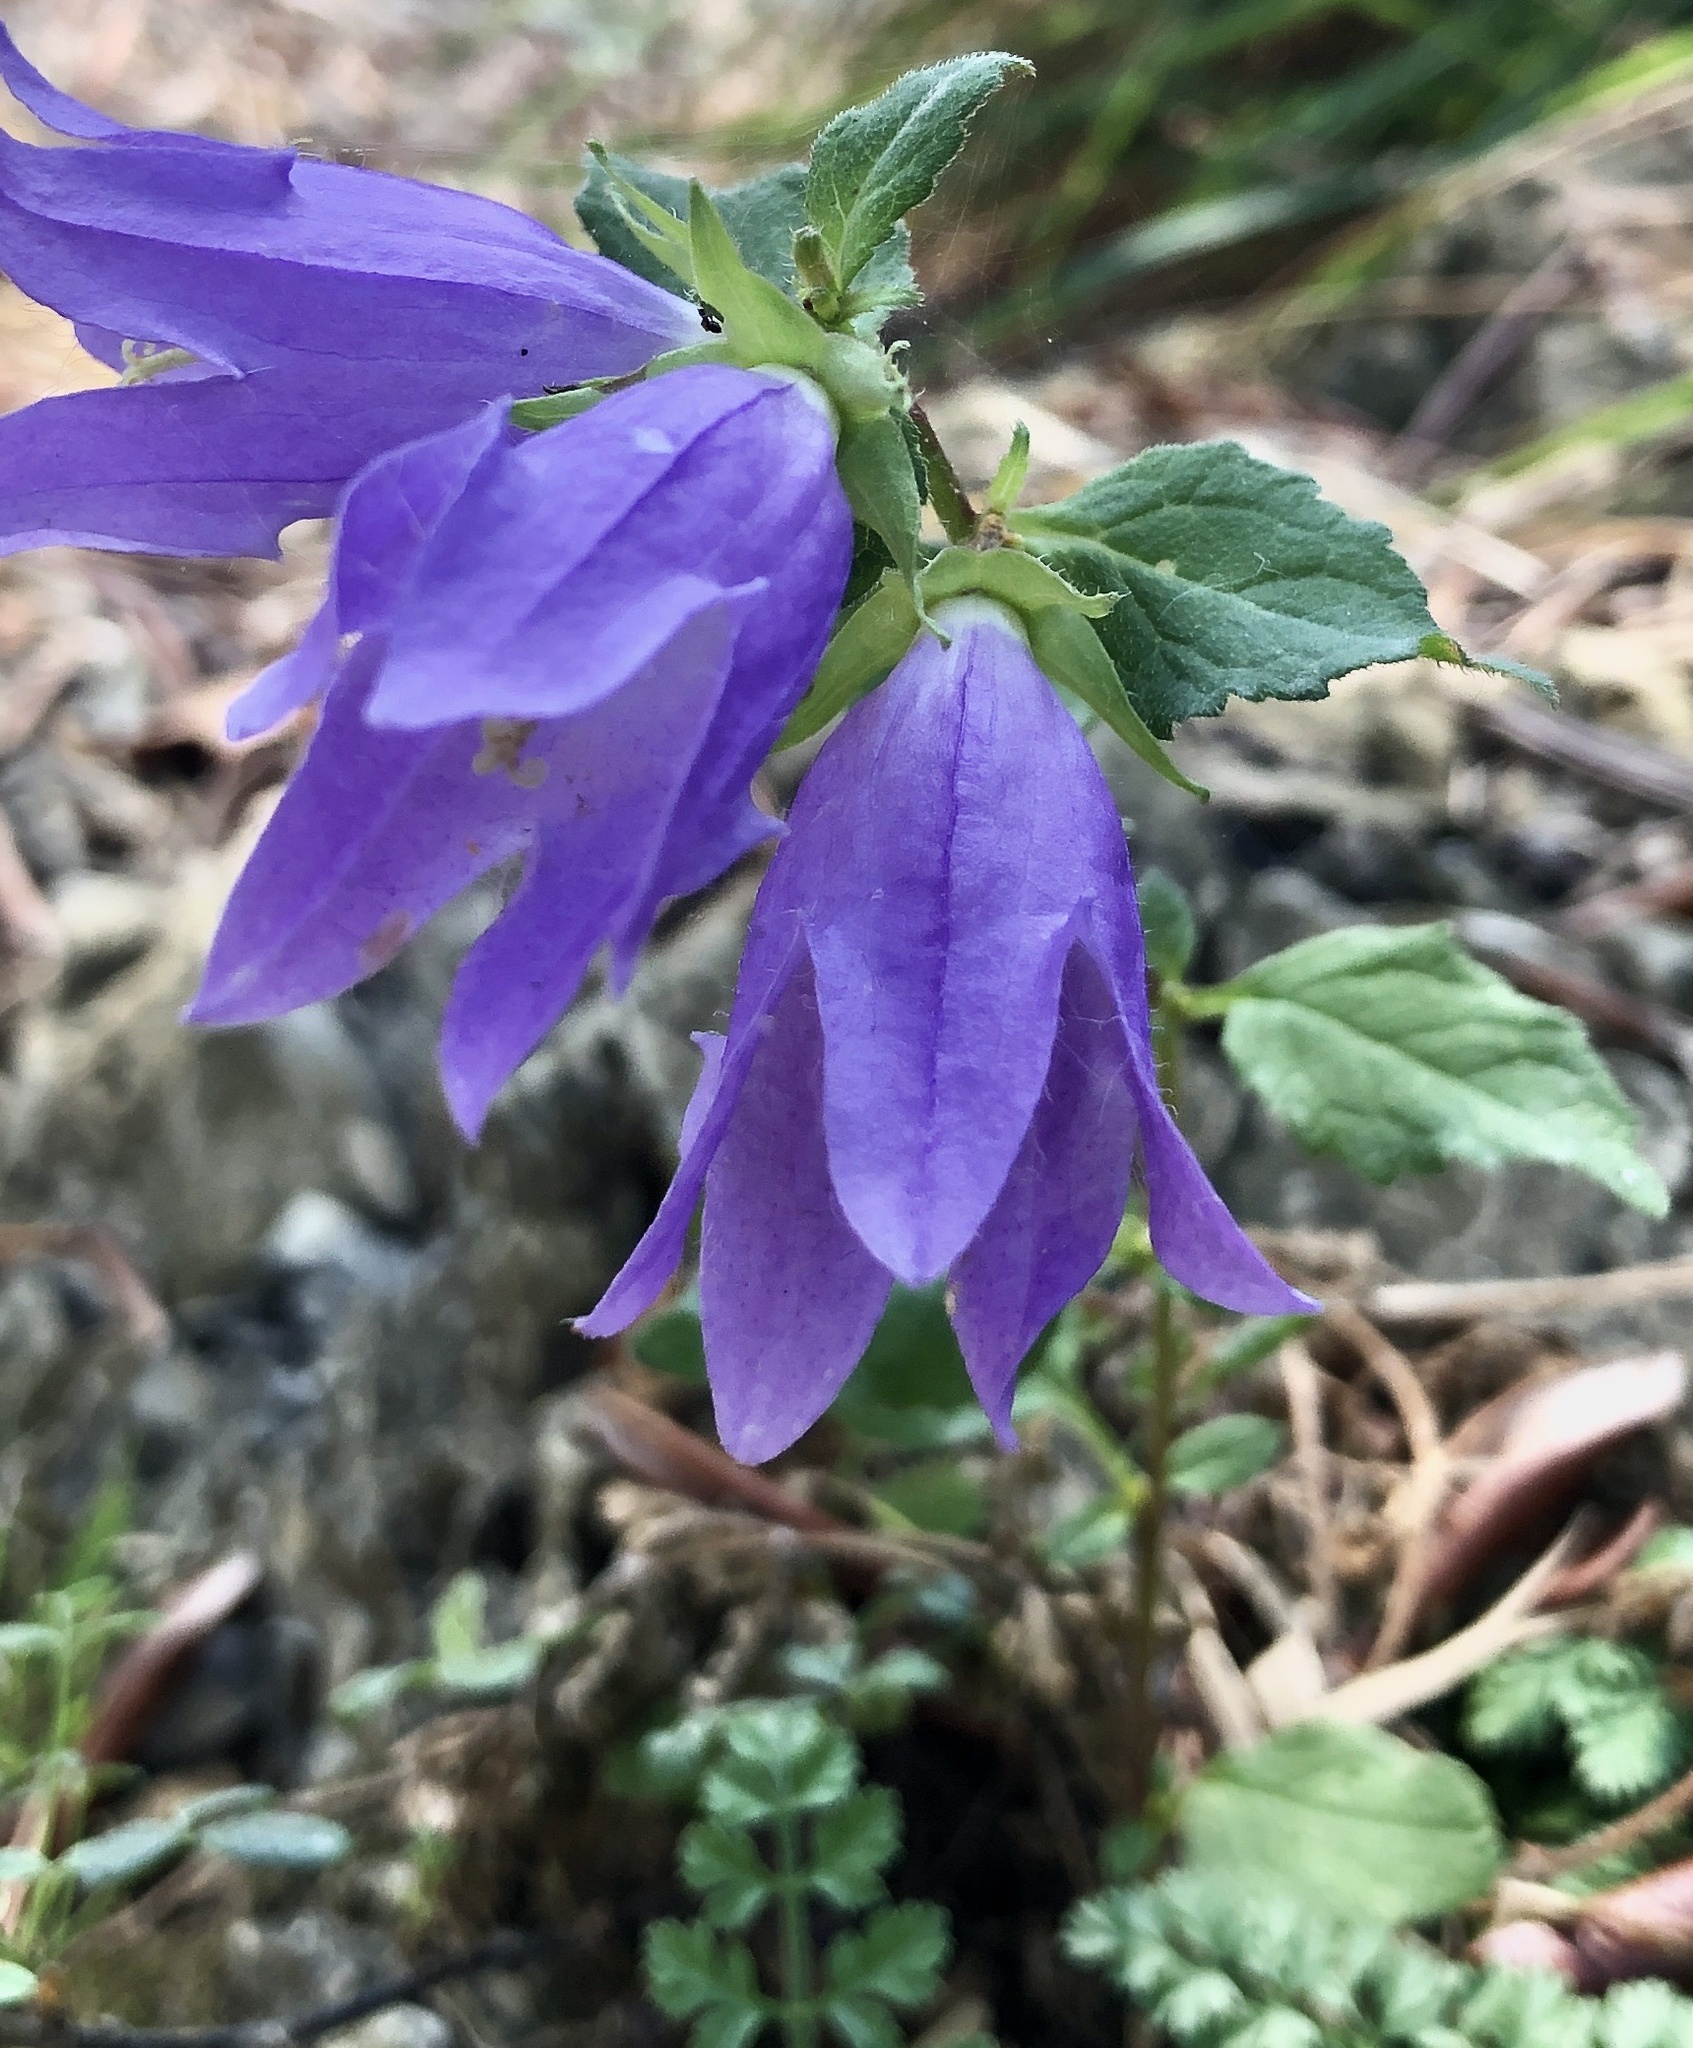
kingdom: Plantae
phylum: Tracheophyta
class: Magnoliopsida
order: Asterales
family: Campanulaceae
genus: Campanula
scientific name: Campanula trachelium
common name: Nettle-leaved bellflower
